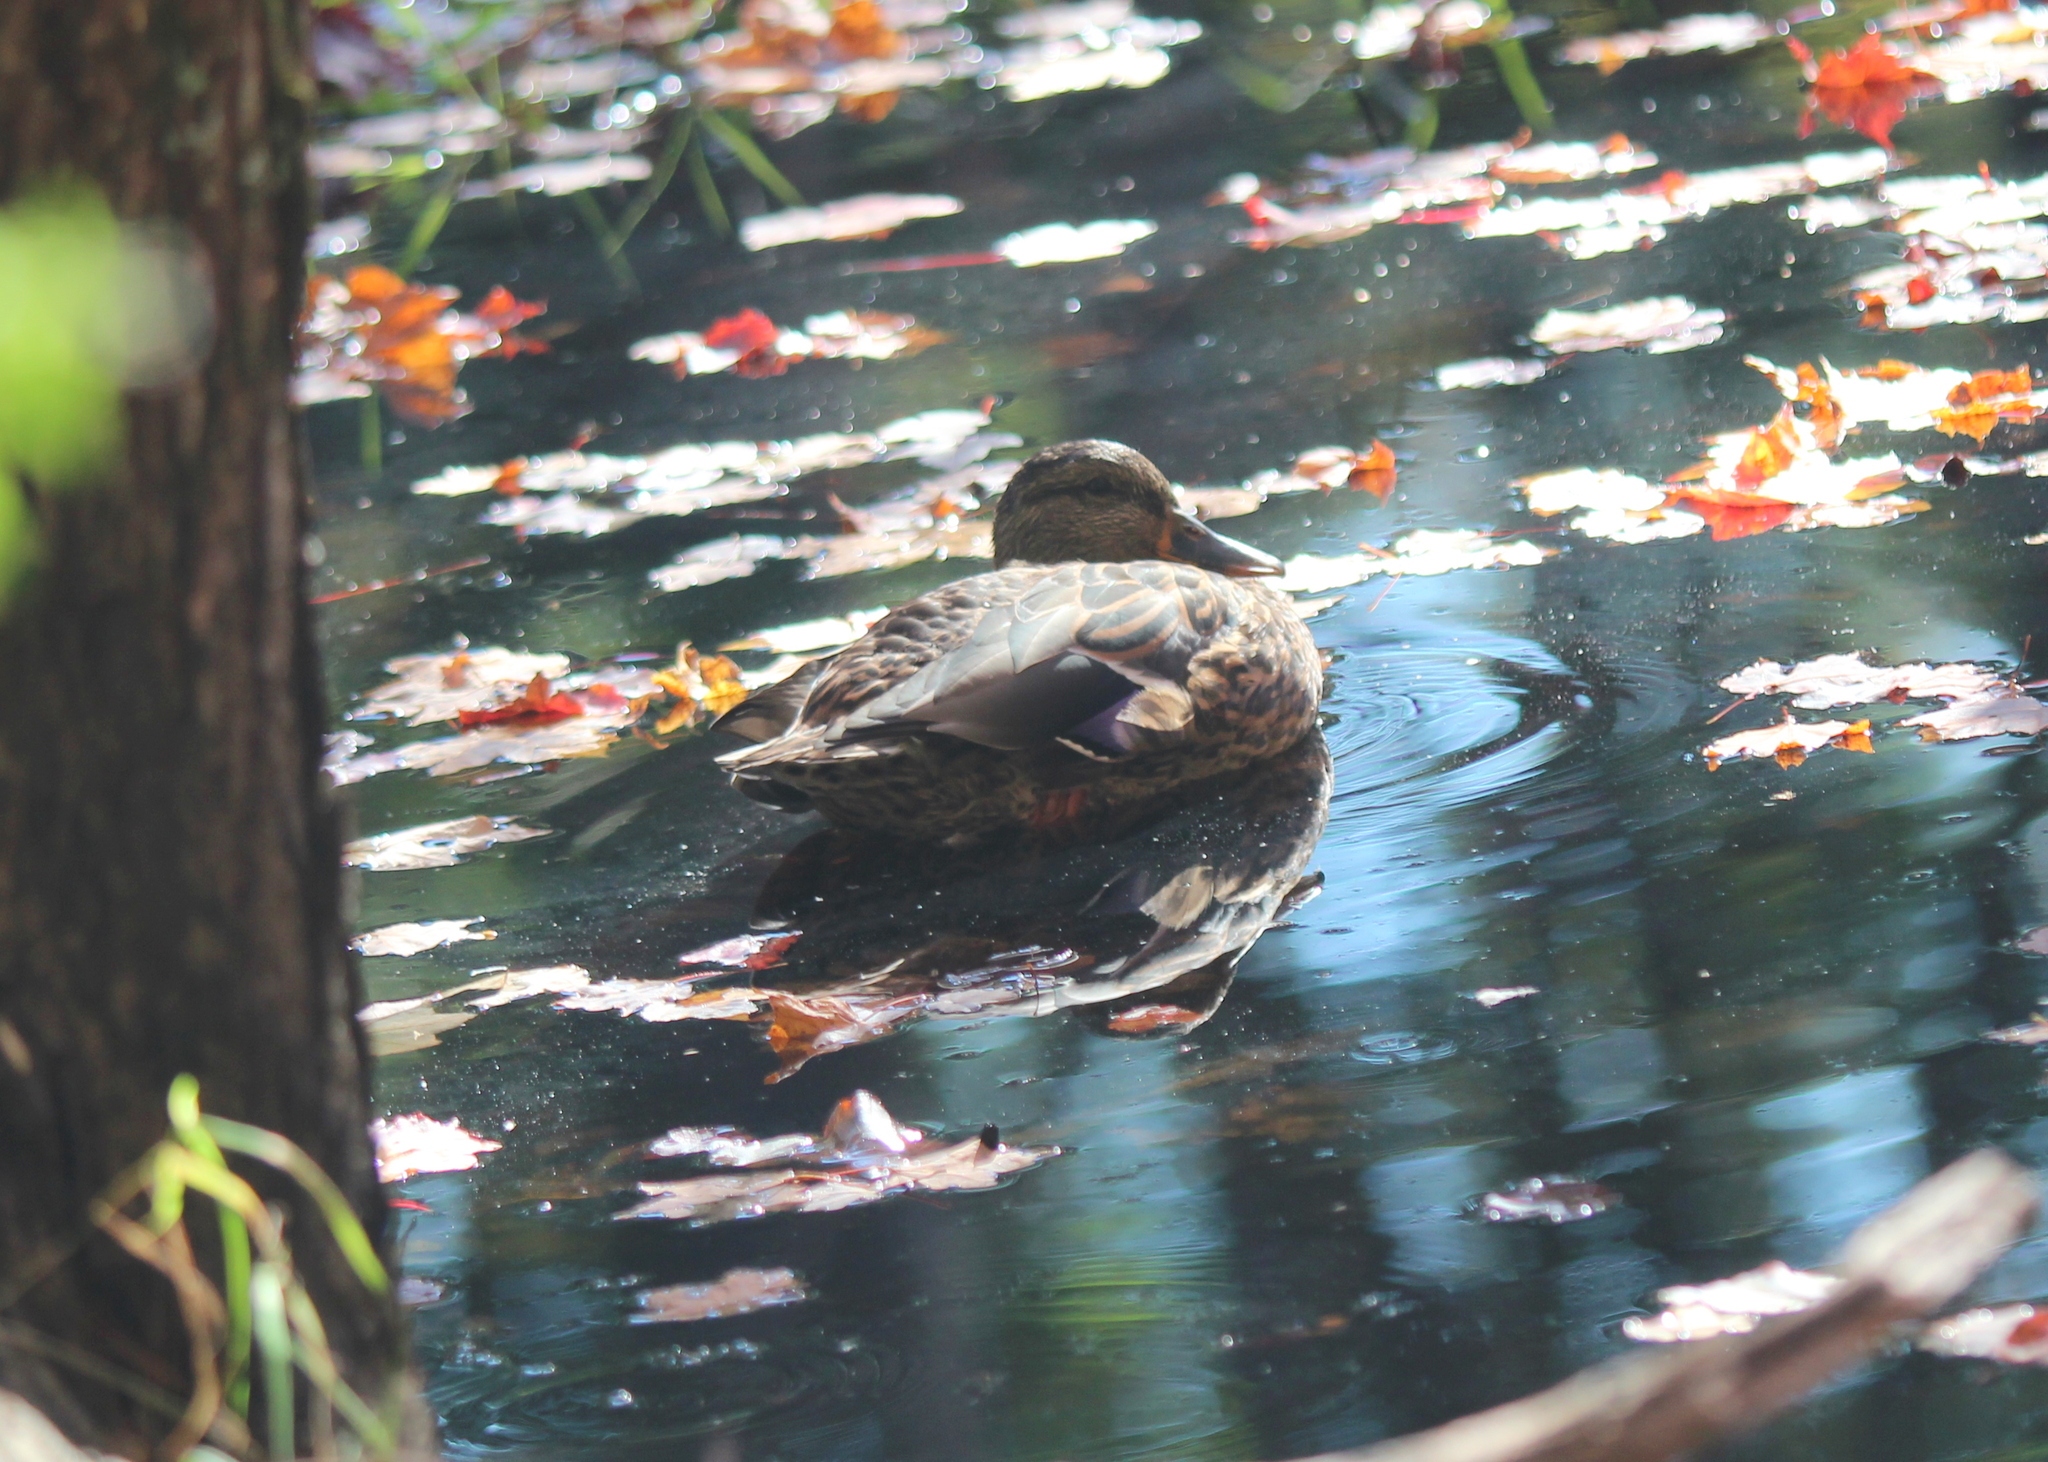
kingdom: Animalia
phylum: Chordata
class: Aves
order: Anseriformes
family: Anatidae
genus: Anas
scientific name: Anas platyrhynchos
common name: Mallard
